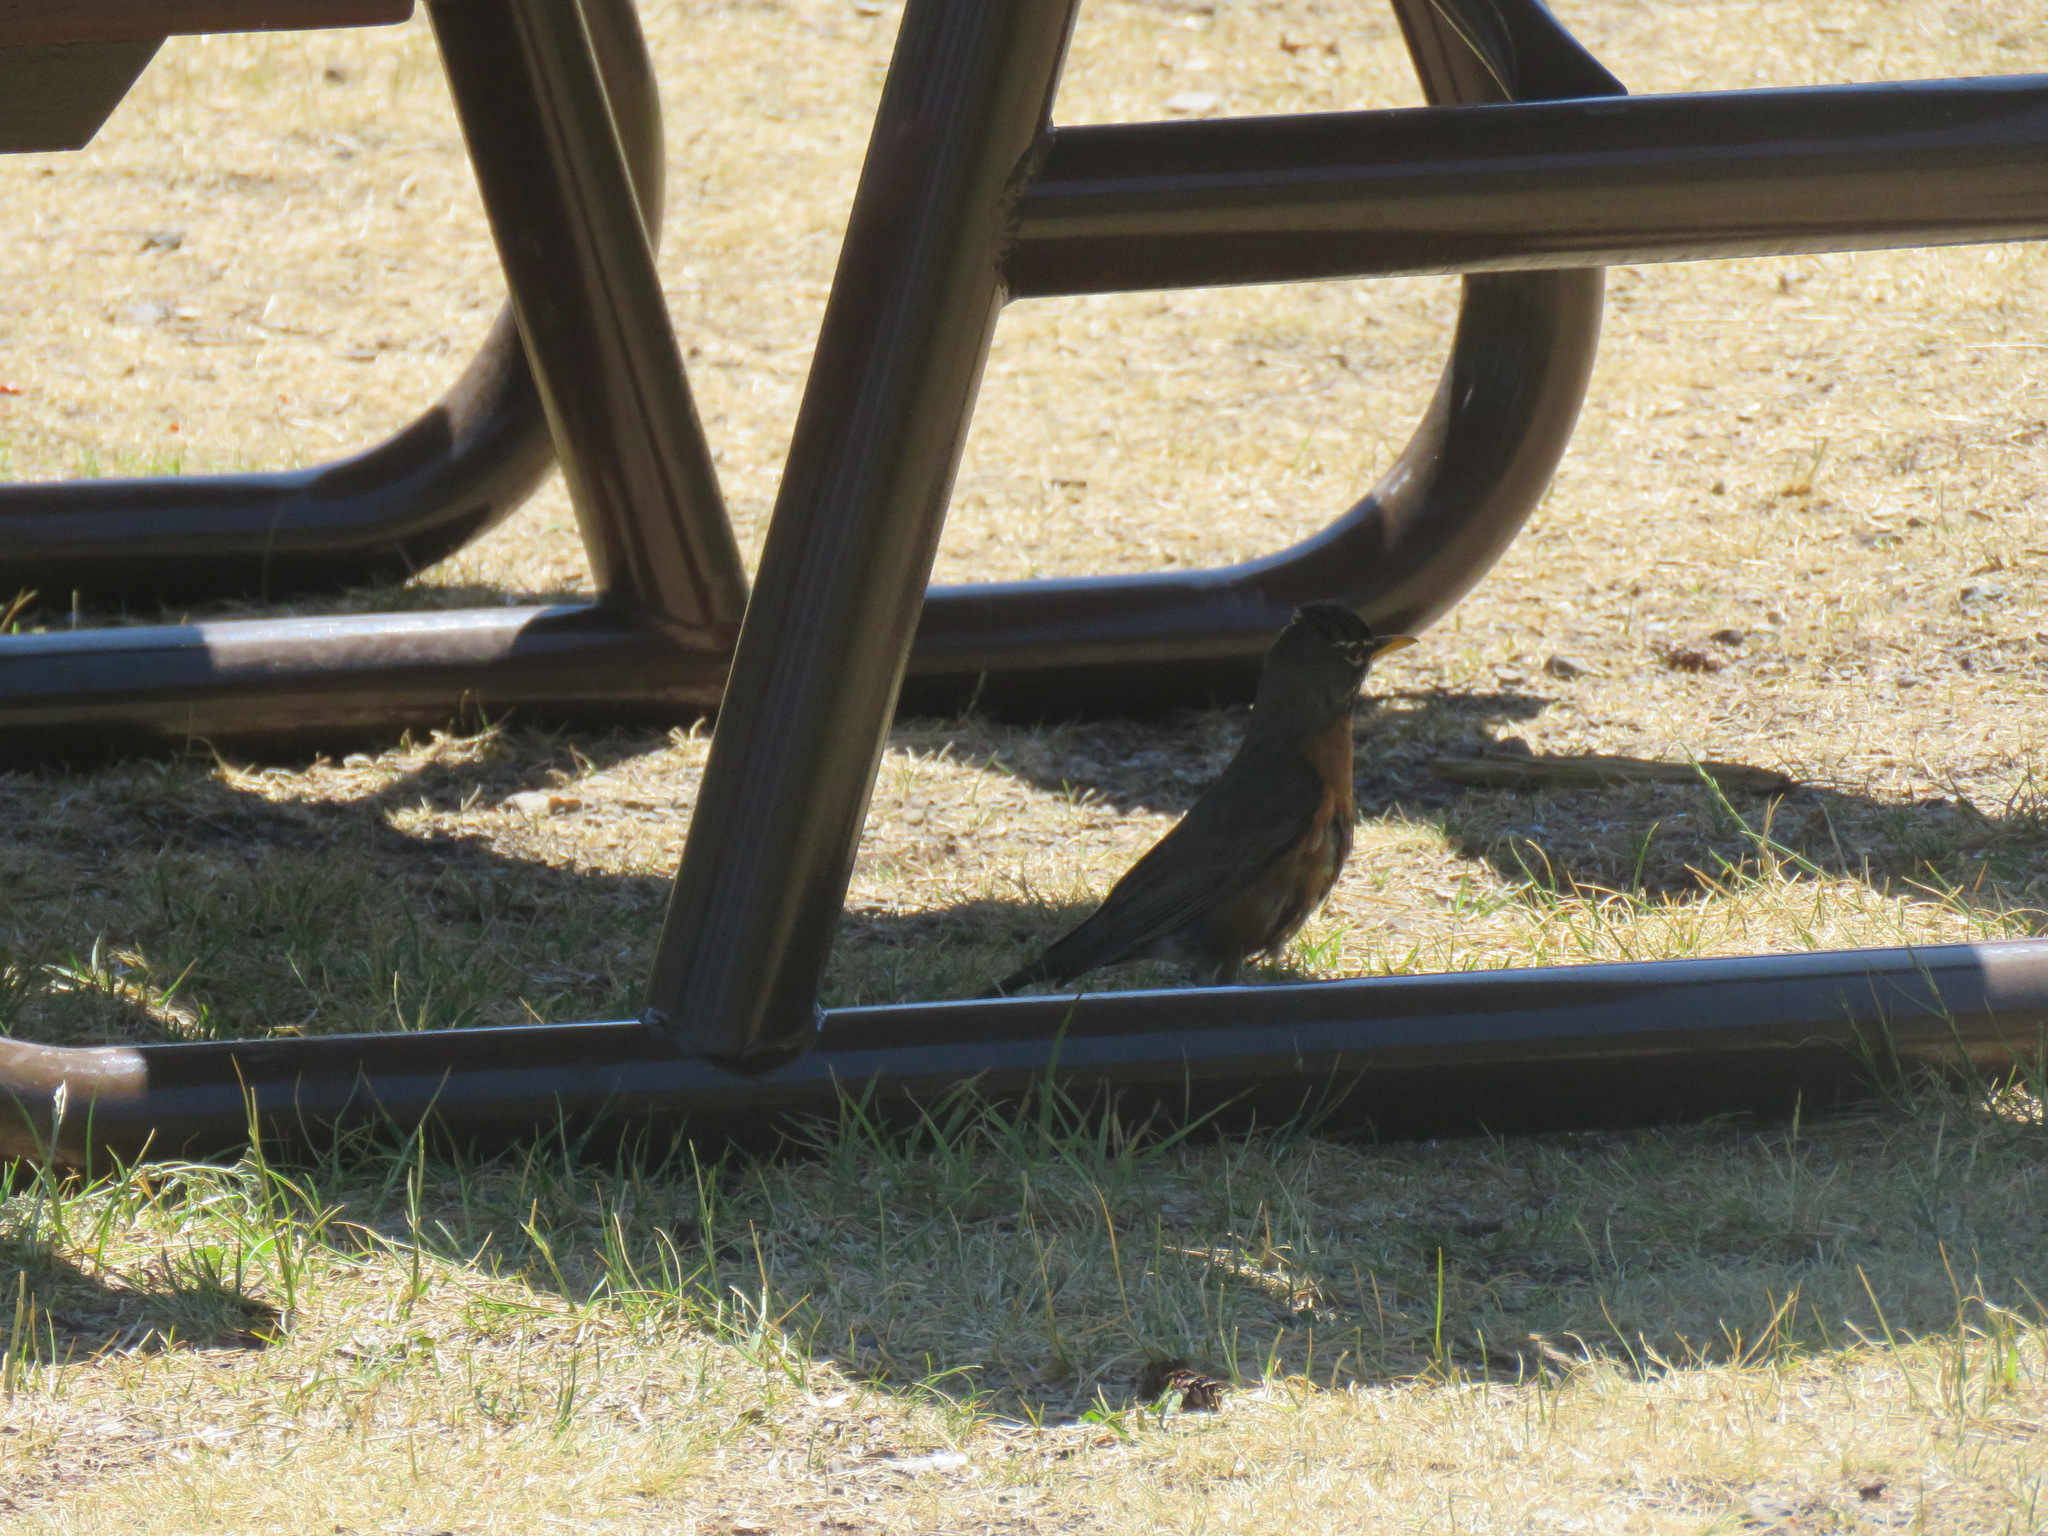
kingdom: Animalia
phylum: Chordata
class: Aves
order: Passeriformes
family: Turdidae
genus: Turdus
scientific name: Turdus migratorius
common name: American robin
